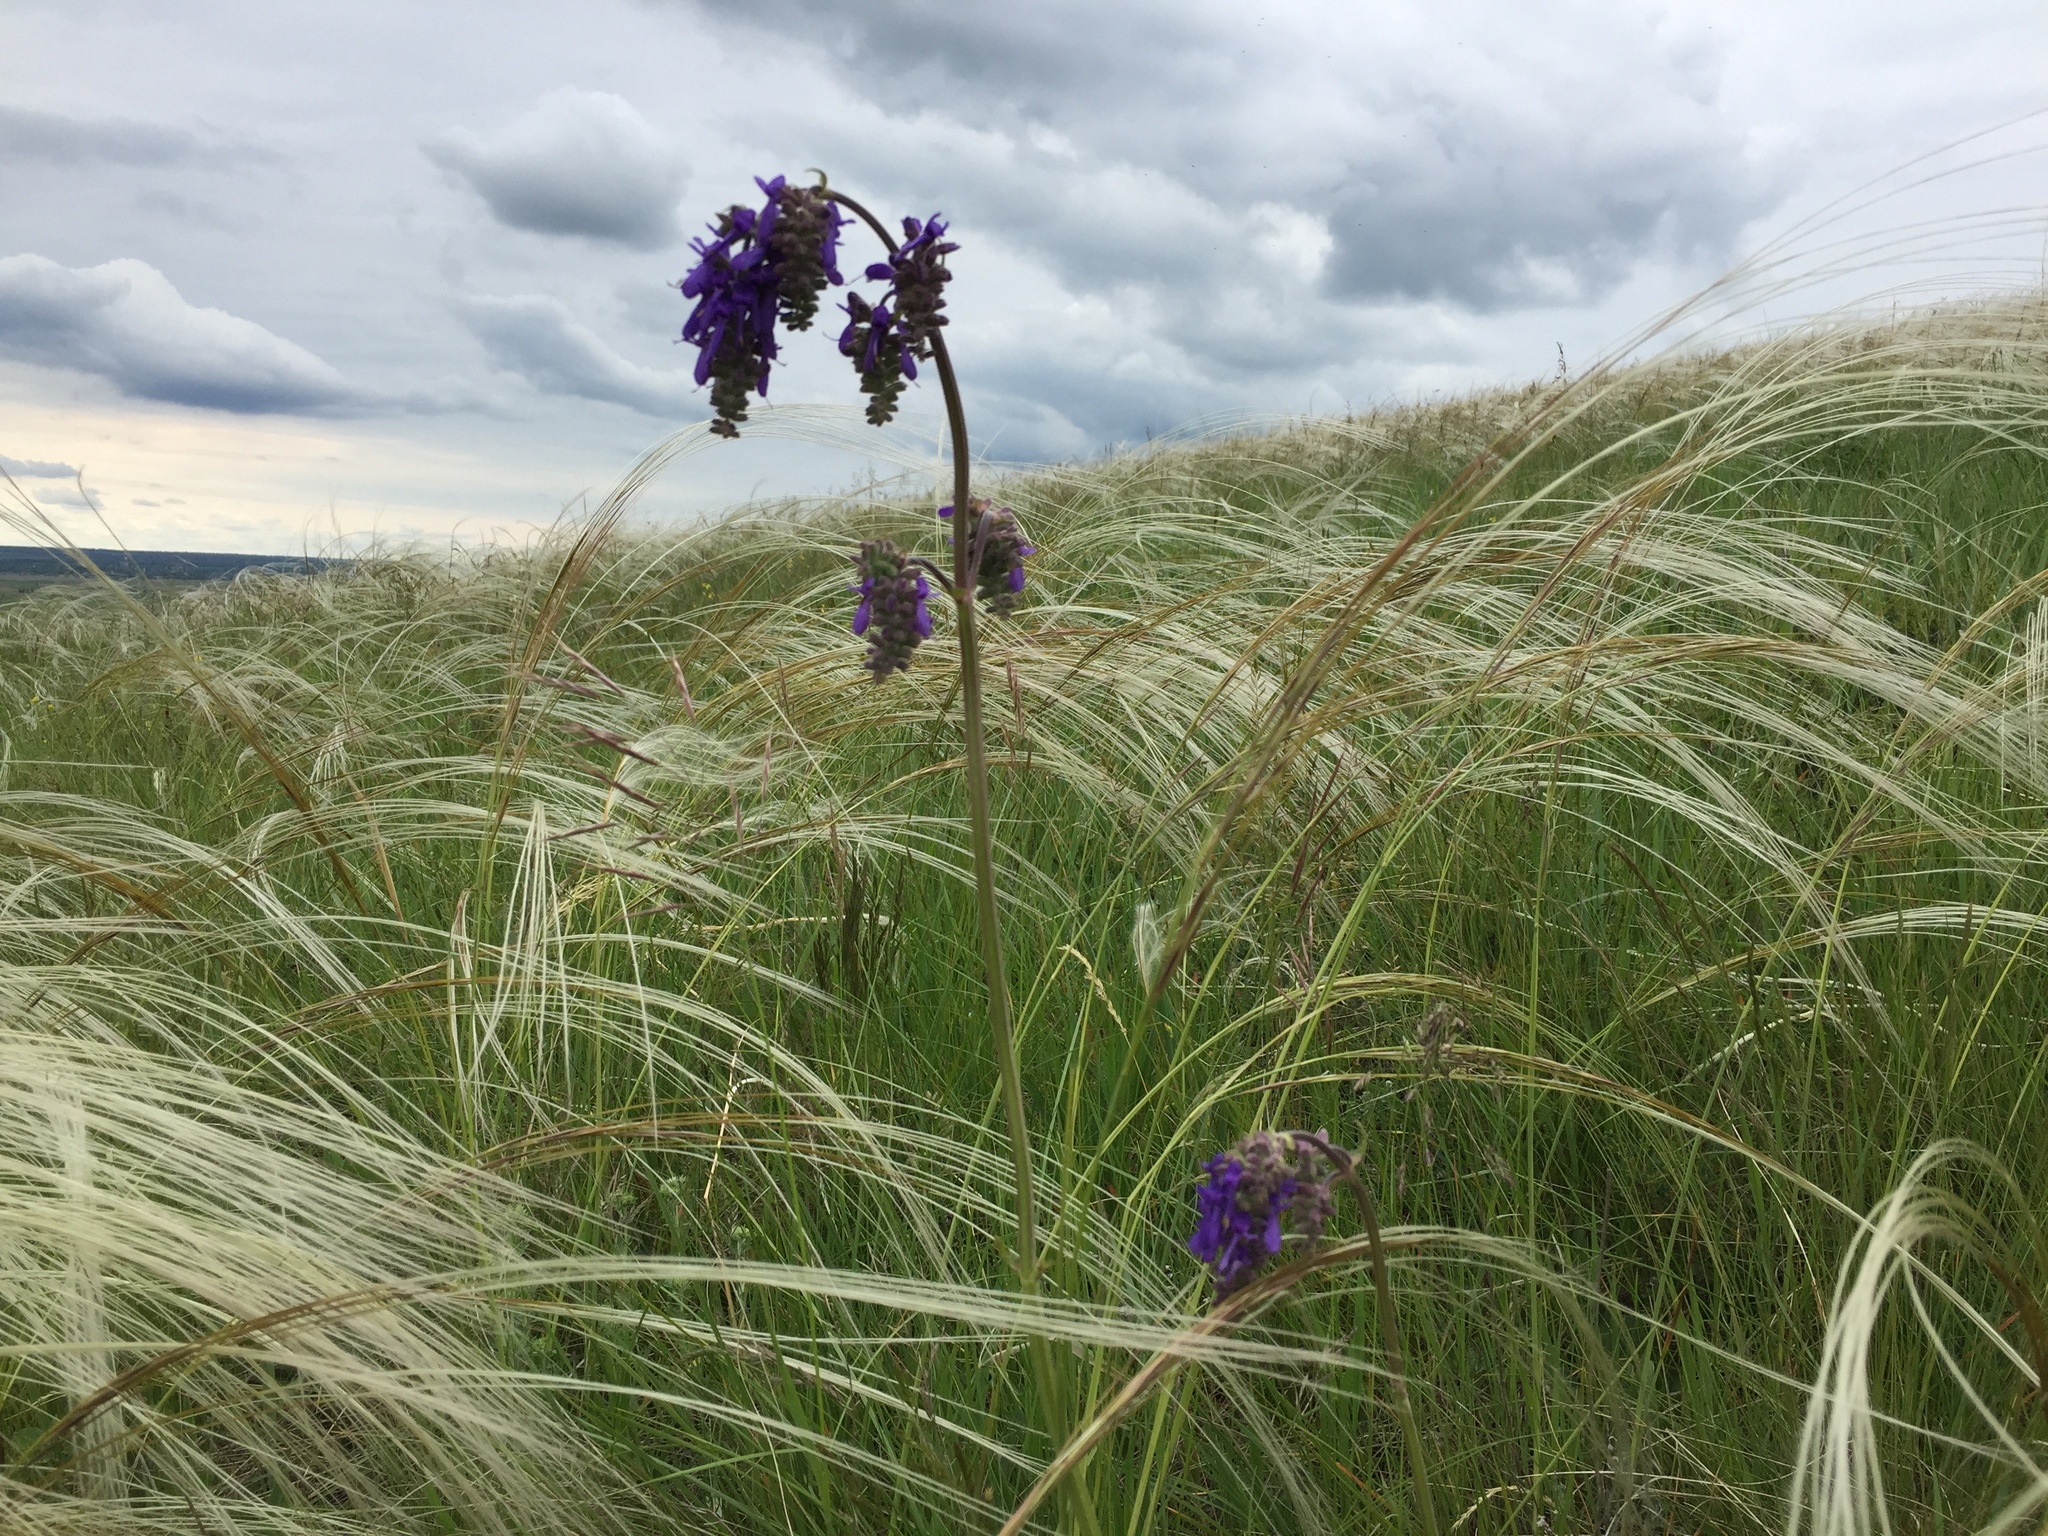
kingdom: Plantae
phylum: Tracheophyta
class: Magnoliopsida
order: Lamiales
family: Lamiaceae
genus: Salvia
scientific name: Salvia nutans
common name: Nodding sage
